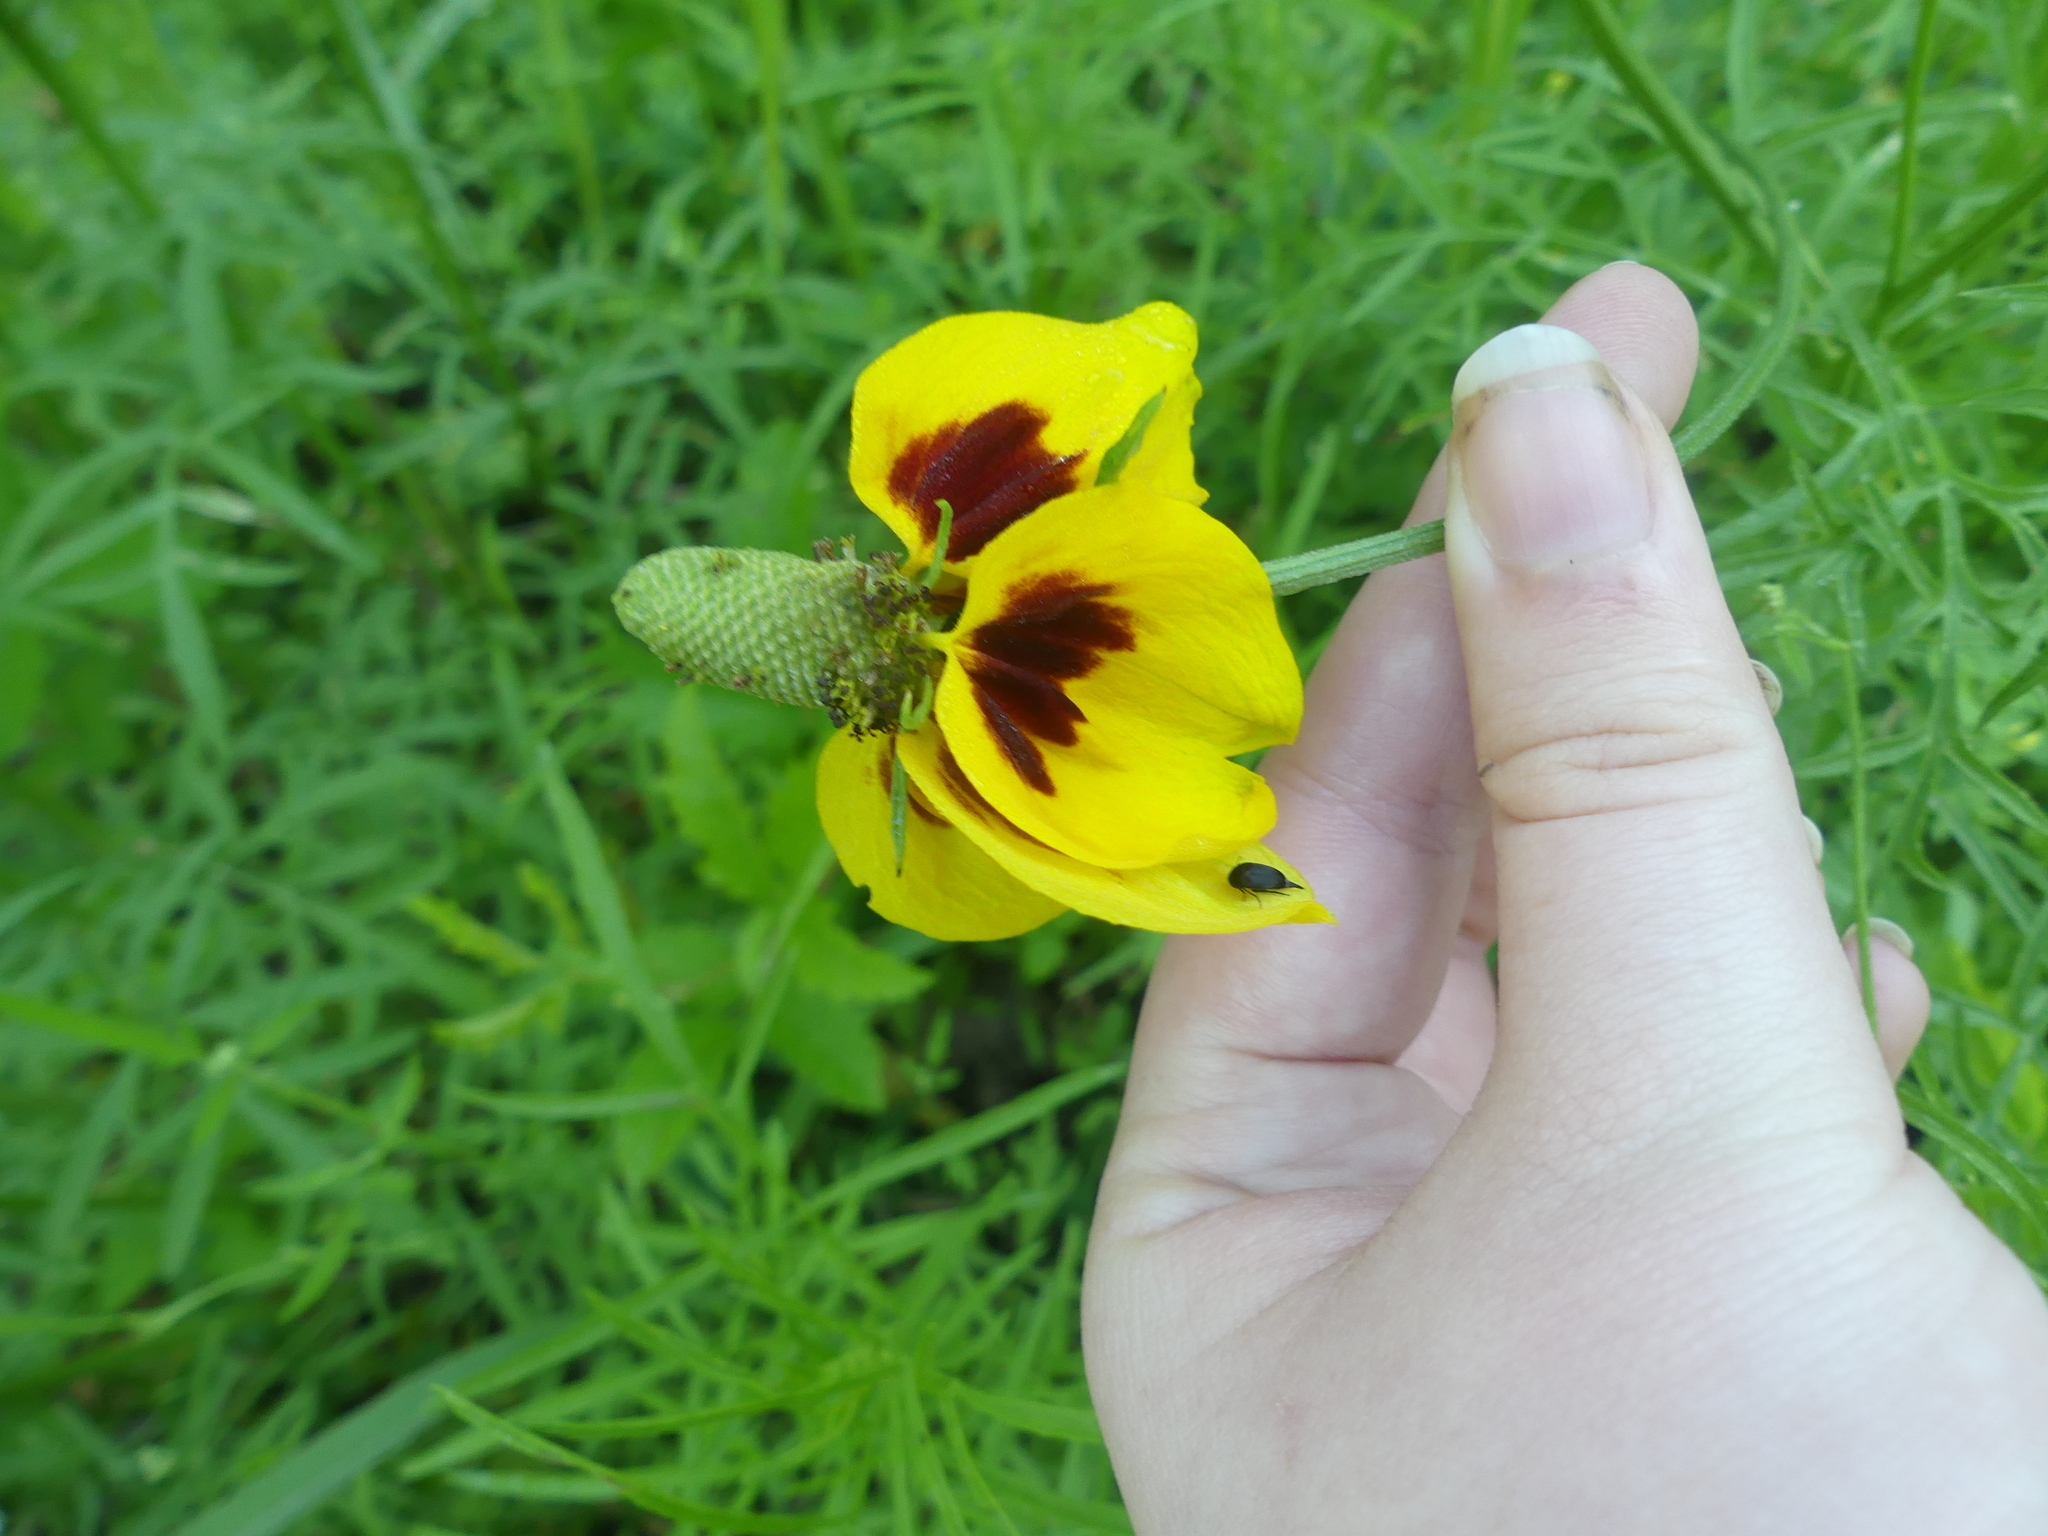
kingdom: Plantae
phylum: Tracheophyta
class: Magnoliopsida
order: Asterales
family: Asteraceae
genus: Ratibida
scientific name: Ratibida columnifera
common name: Prairie coneflower
